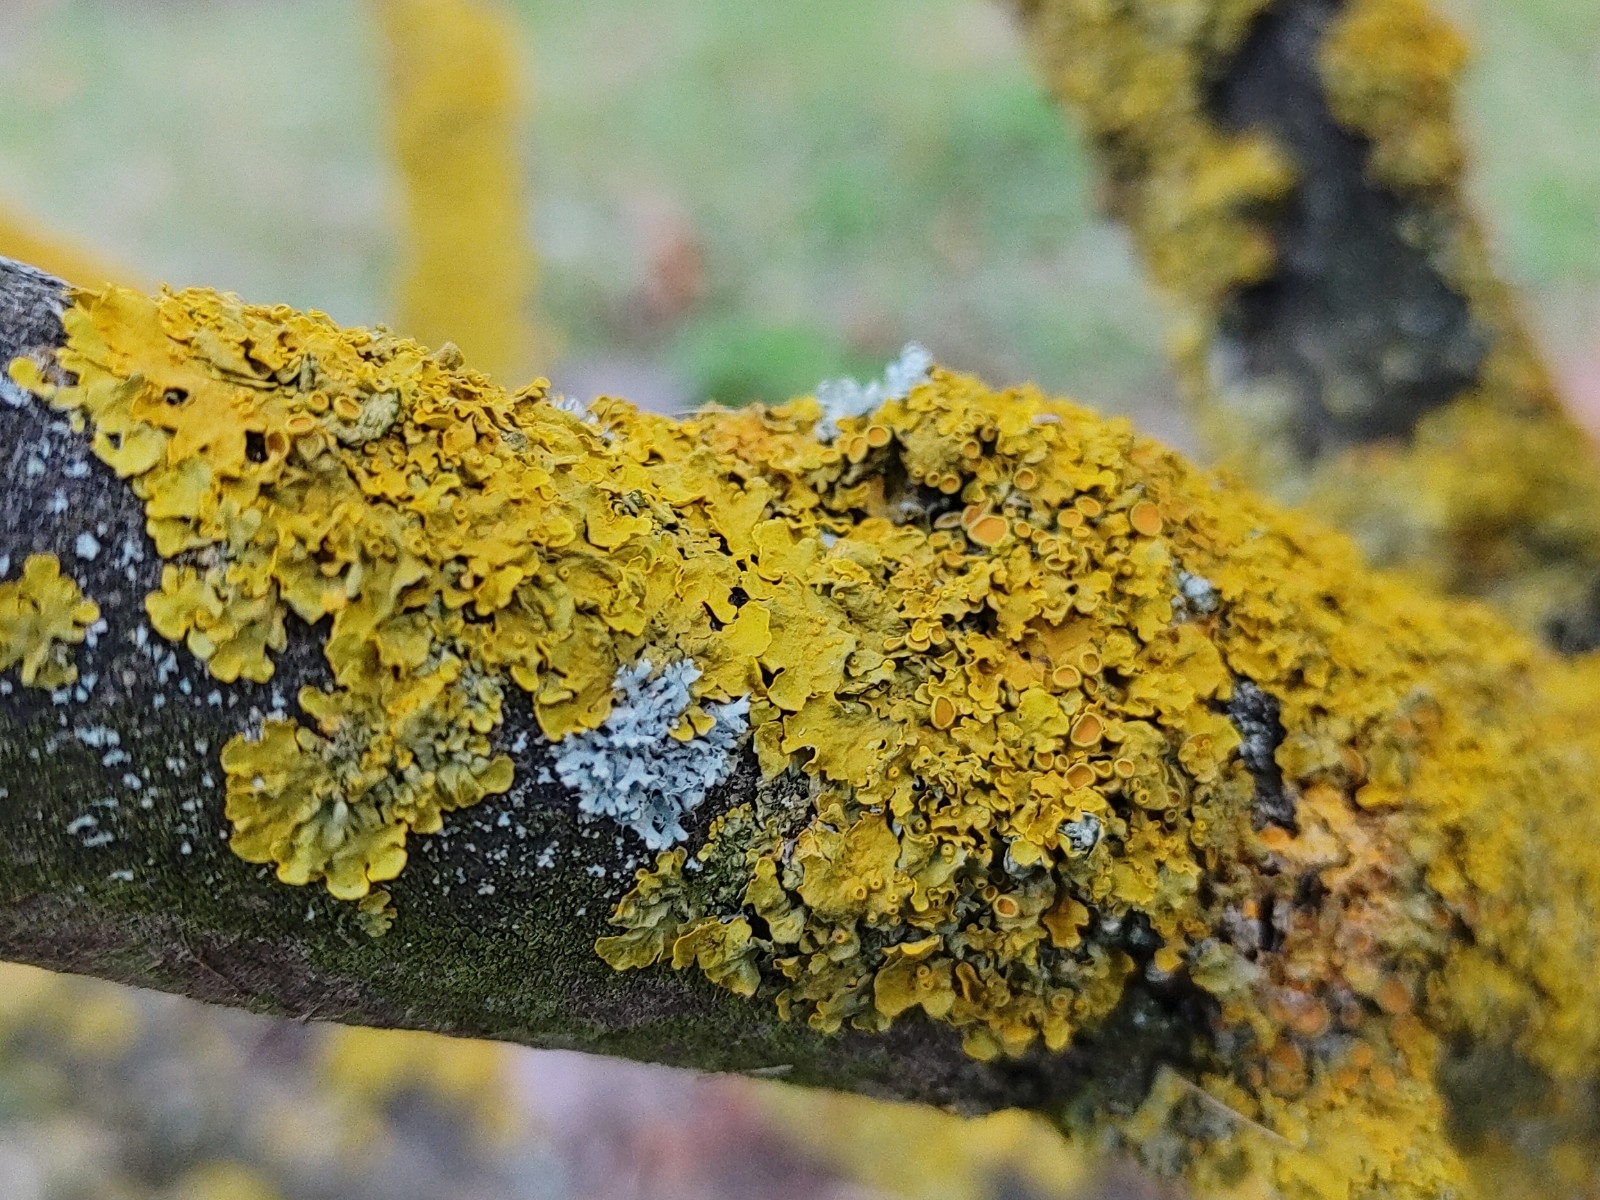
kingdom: Fungi
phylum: Ascomycota
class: Lecanoromycetes
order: Teloschistales
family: Teloschistaceae
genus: Xanthoria
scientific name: Xanthoria parietina
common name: Common orange lichen
